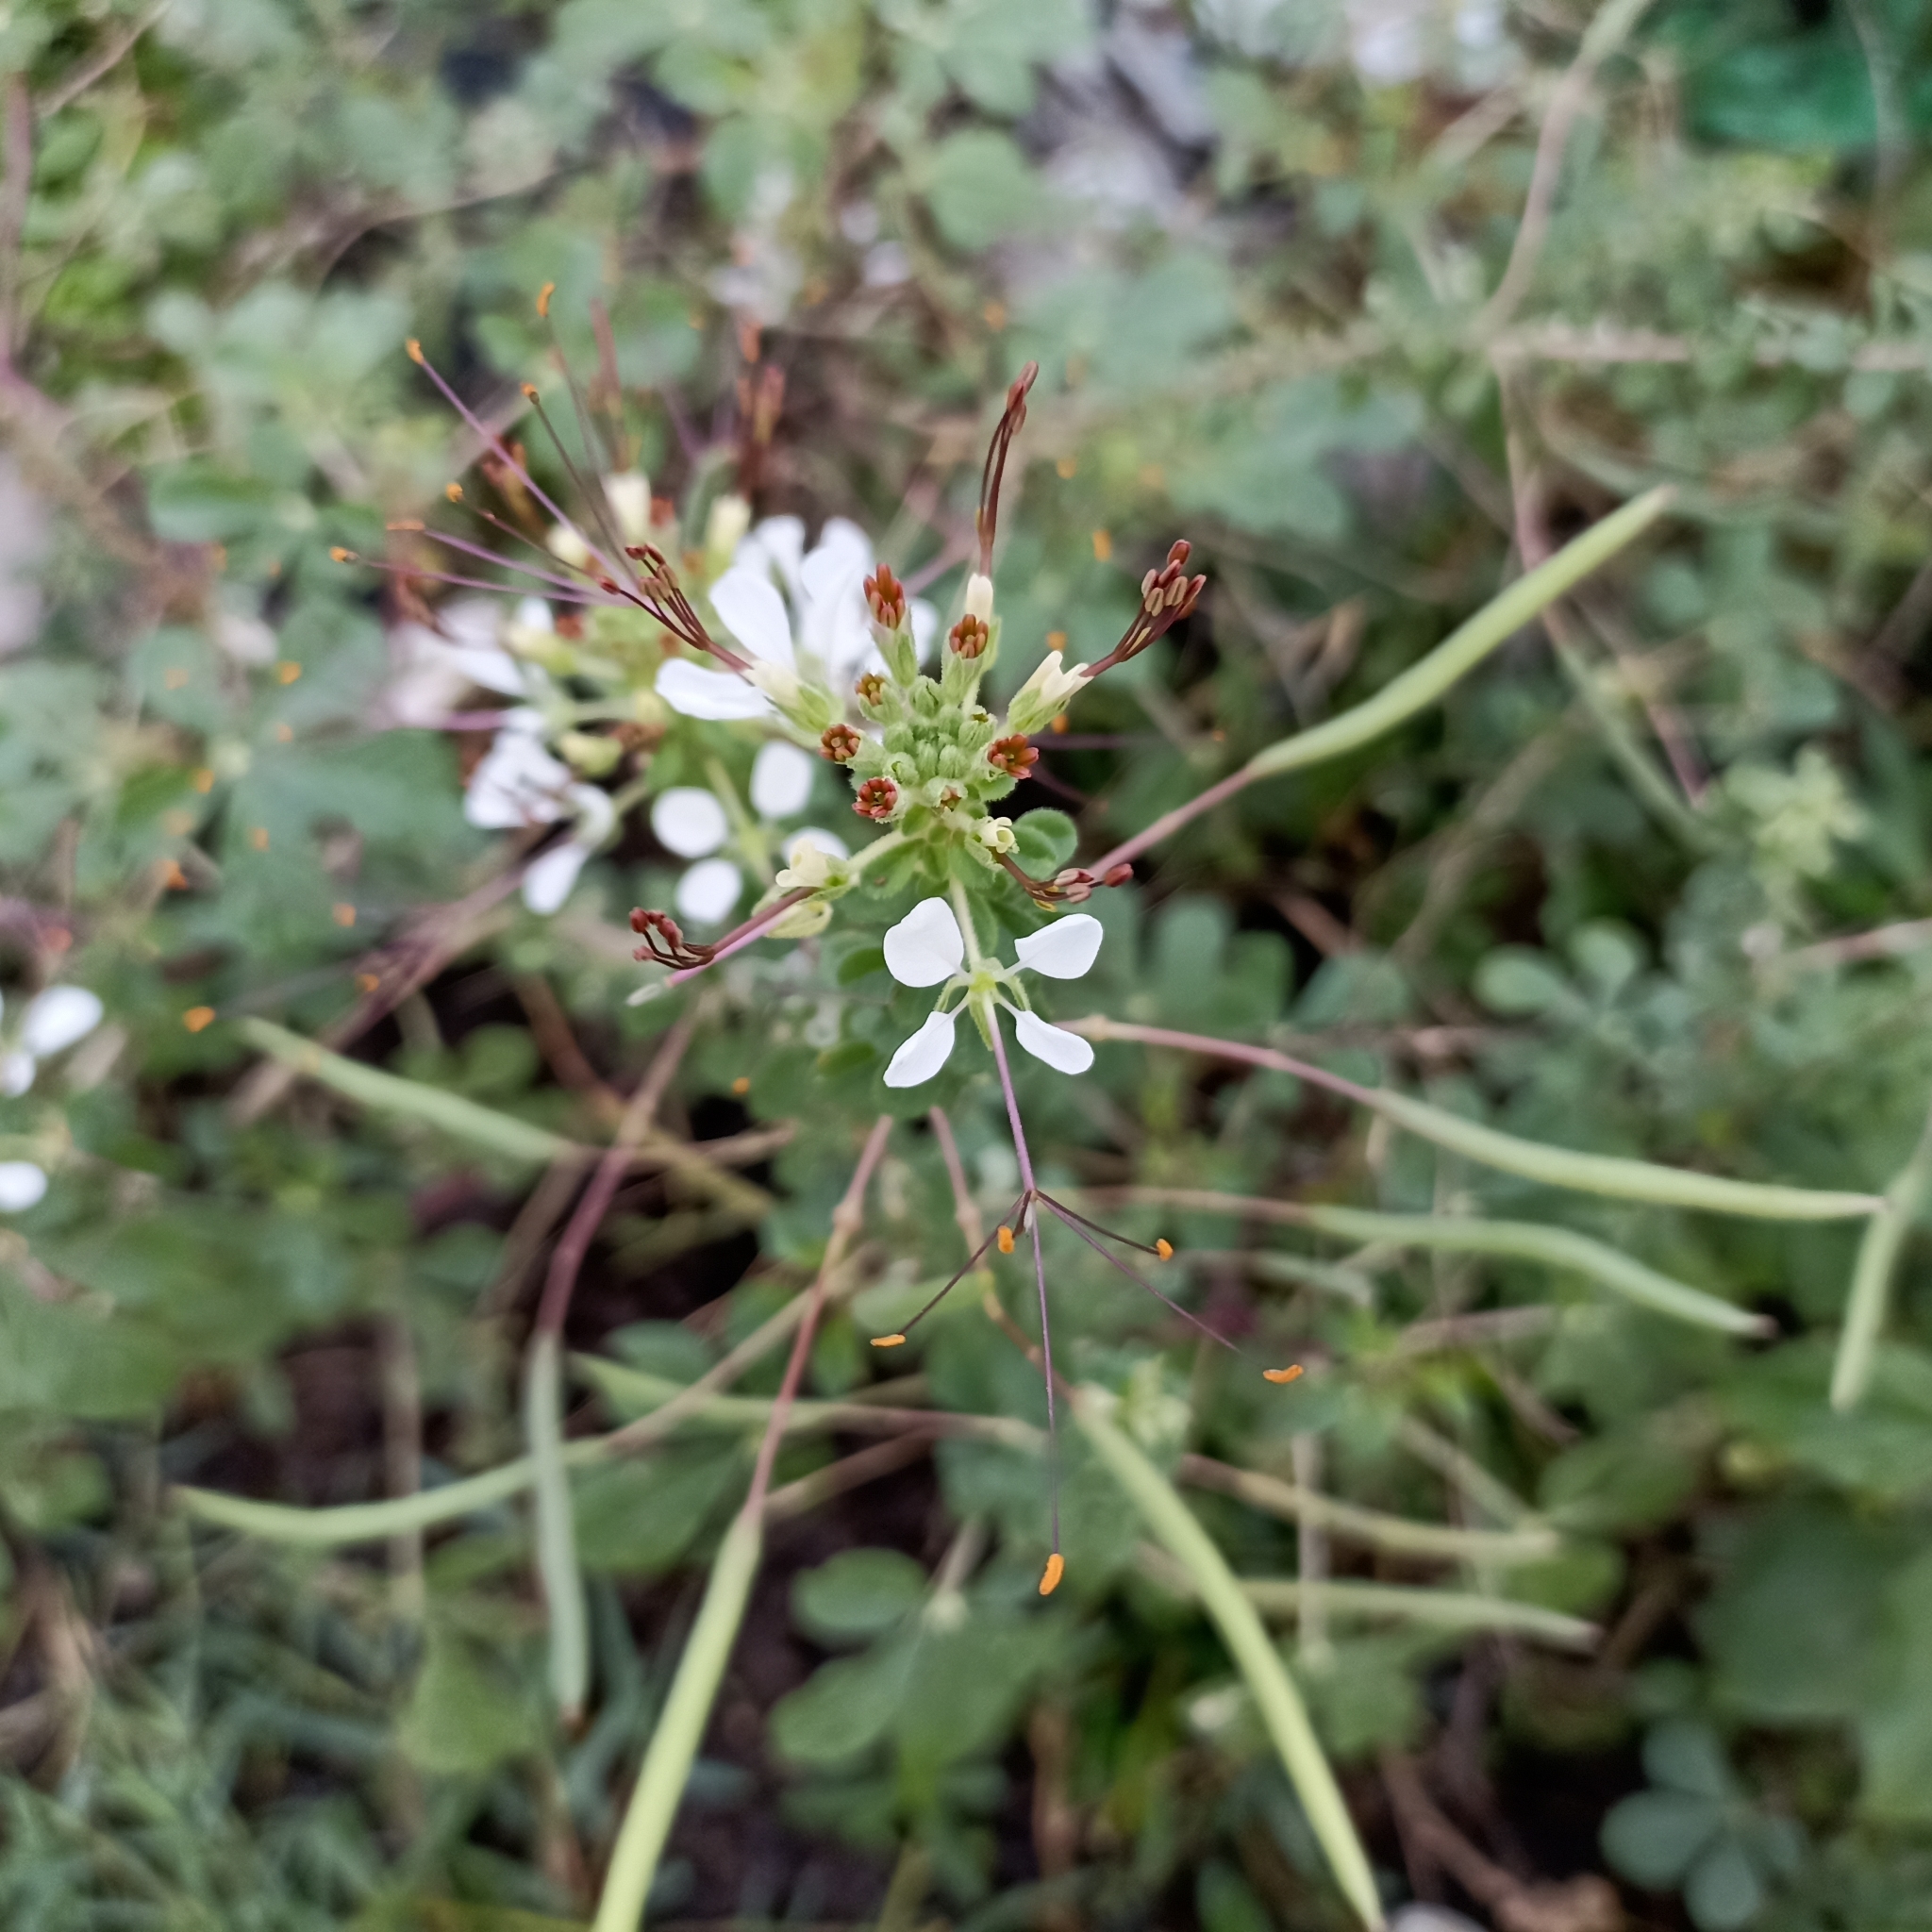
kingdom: Plantae
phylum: Tracheophyta
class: Magnoliopsida
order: Brassicales
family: Cleomaceae
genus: Gynandropsis
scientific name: Gynandropsis gynandra
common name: Spiderwisp
